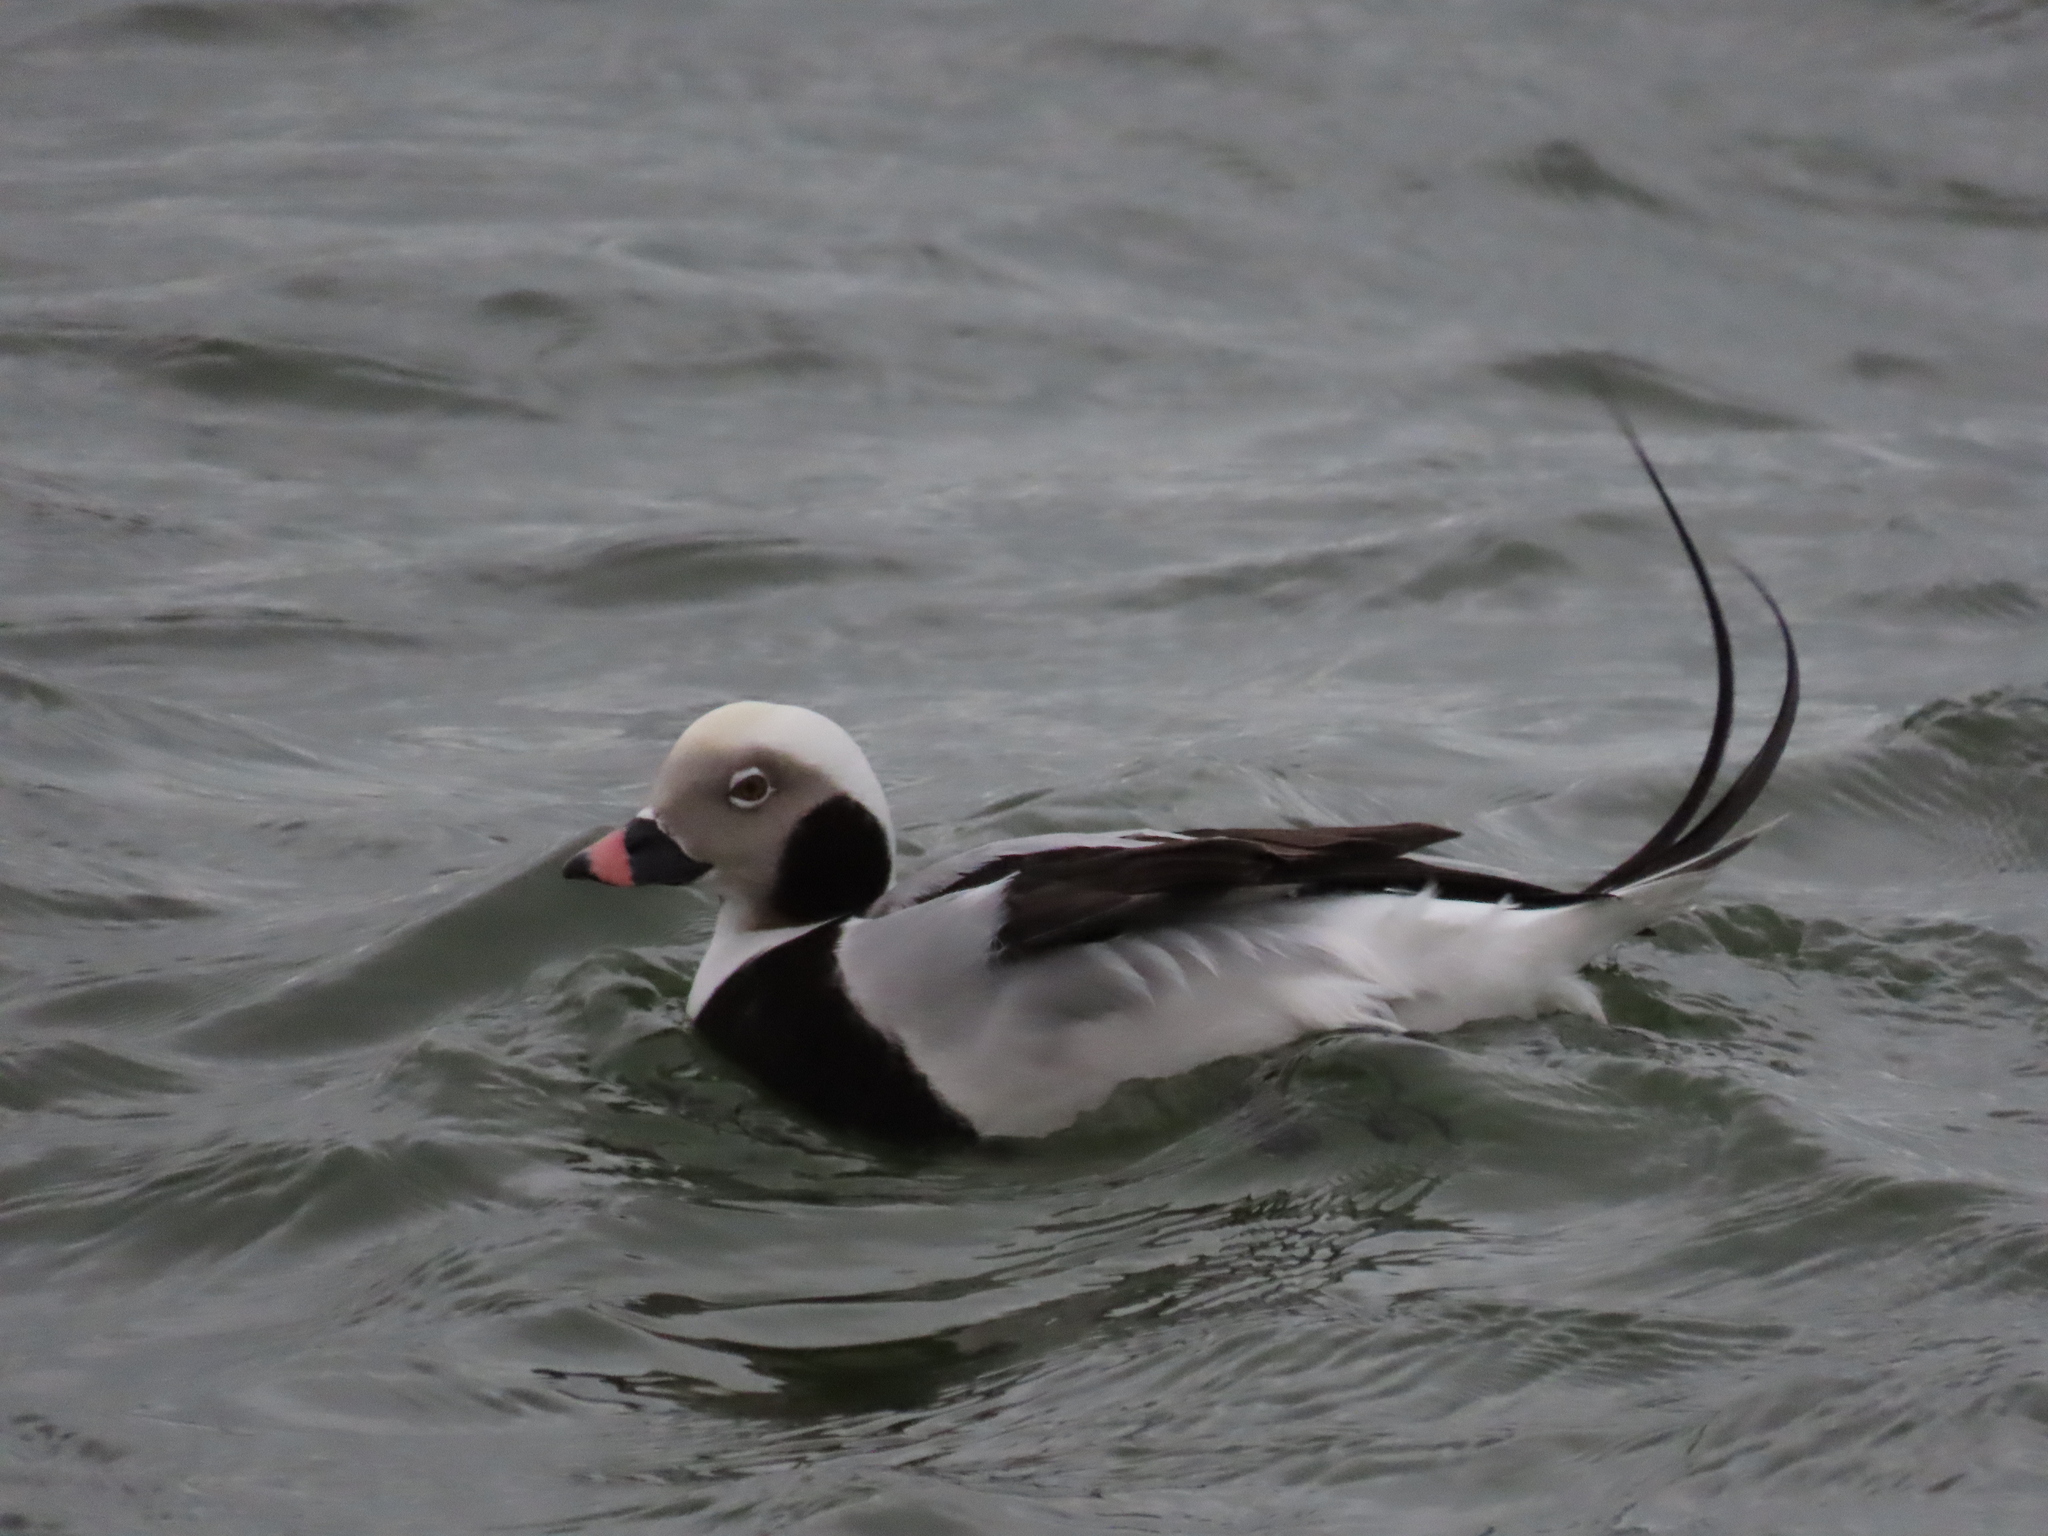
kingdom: Animalia
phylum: Chordata
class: Aves
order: Anseriformes
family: Anatidae
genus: Clangula
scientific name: Clangula hyemalis
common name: Long-tailed duck
